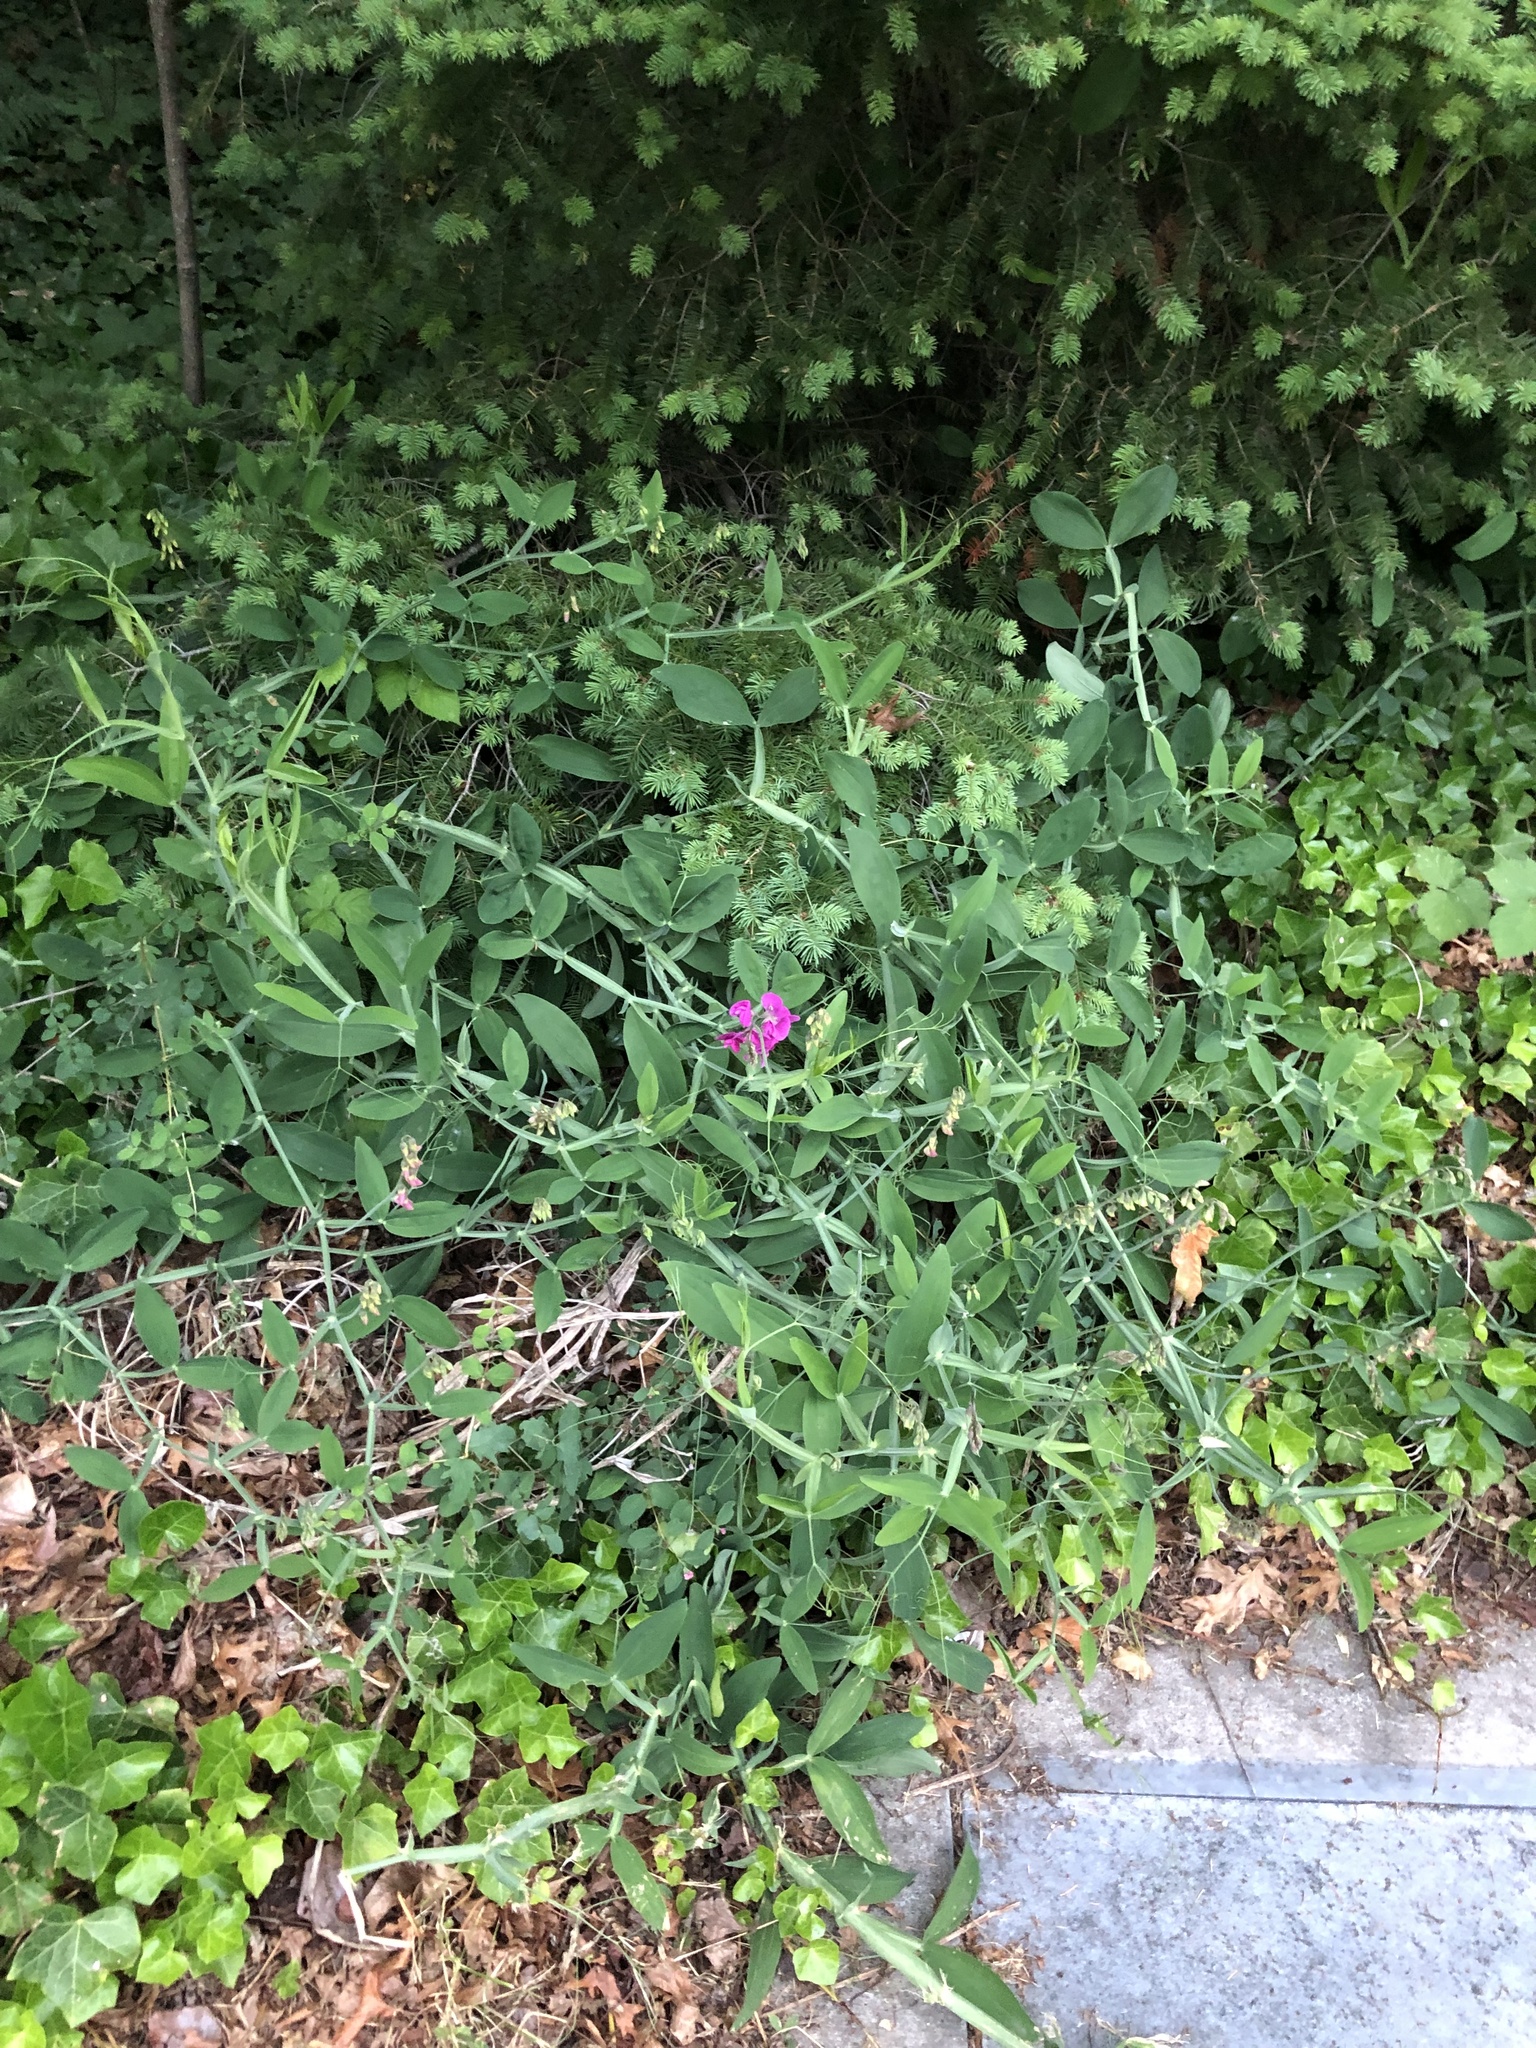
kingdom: Plantae
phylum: Tracheophyta
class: Magnoliopsida
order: Fabales
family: Fabaceae
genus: Lathyrus
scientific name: Lathyrus latifolius
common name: Perennial pea
